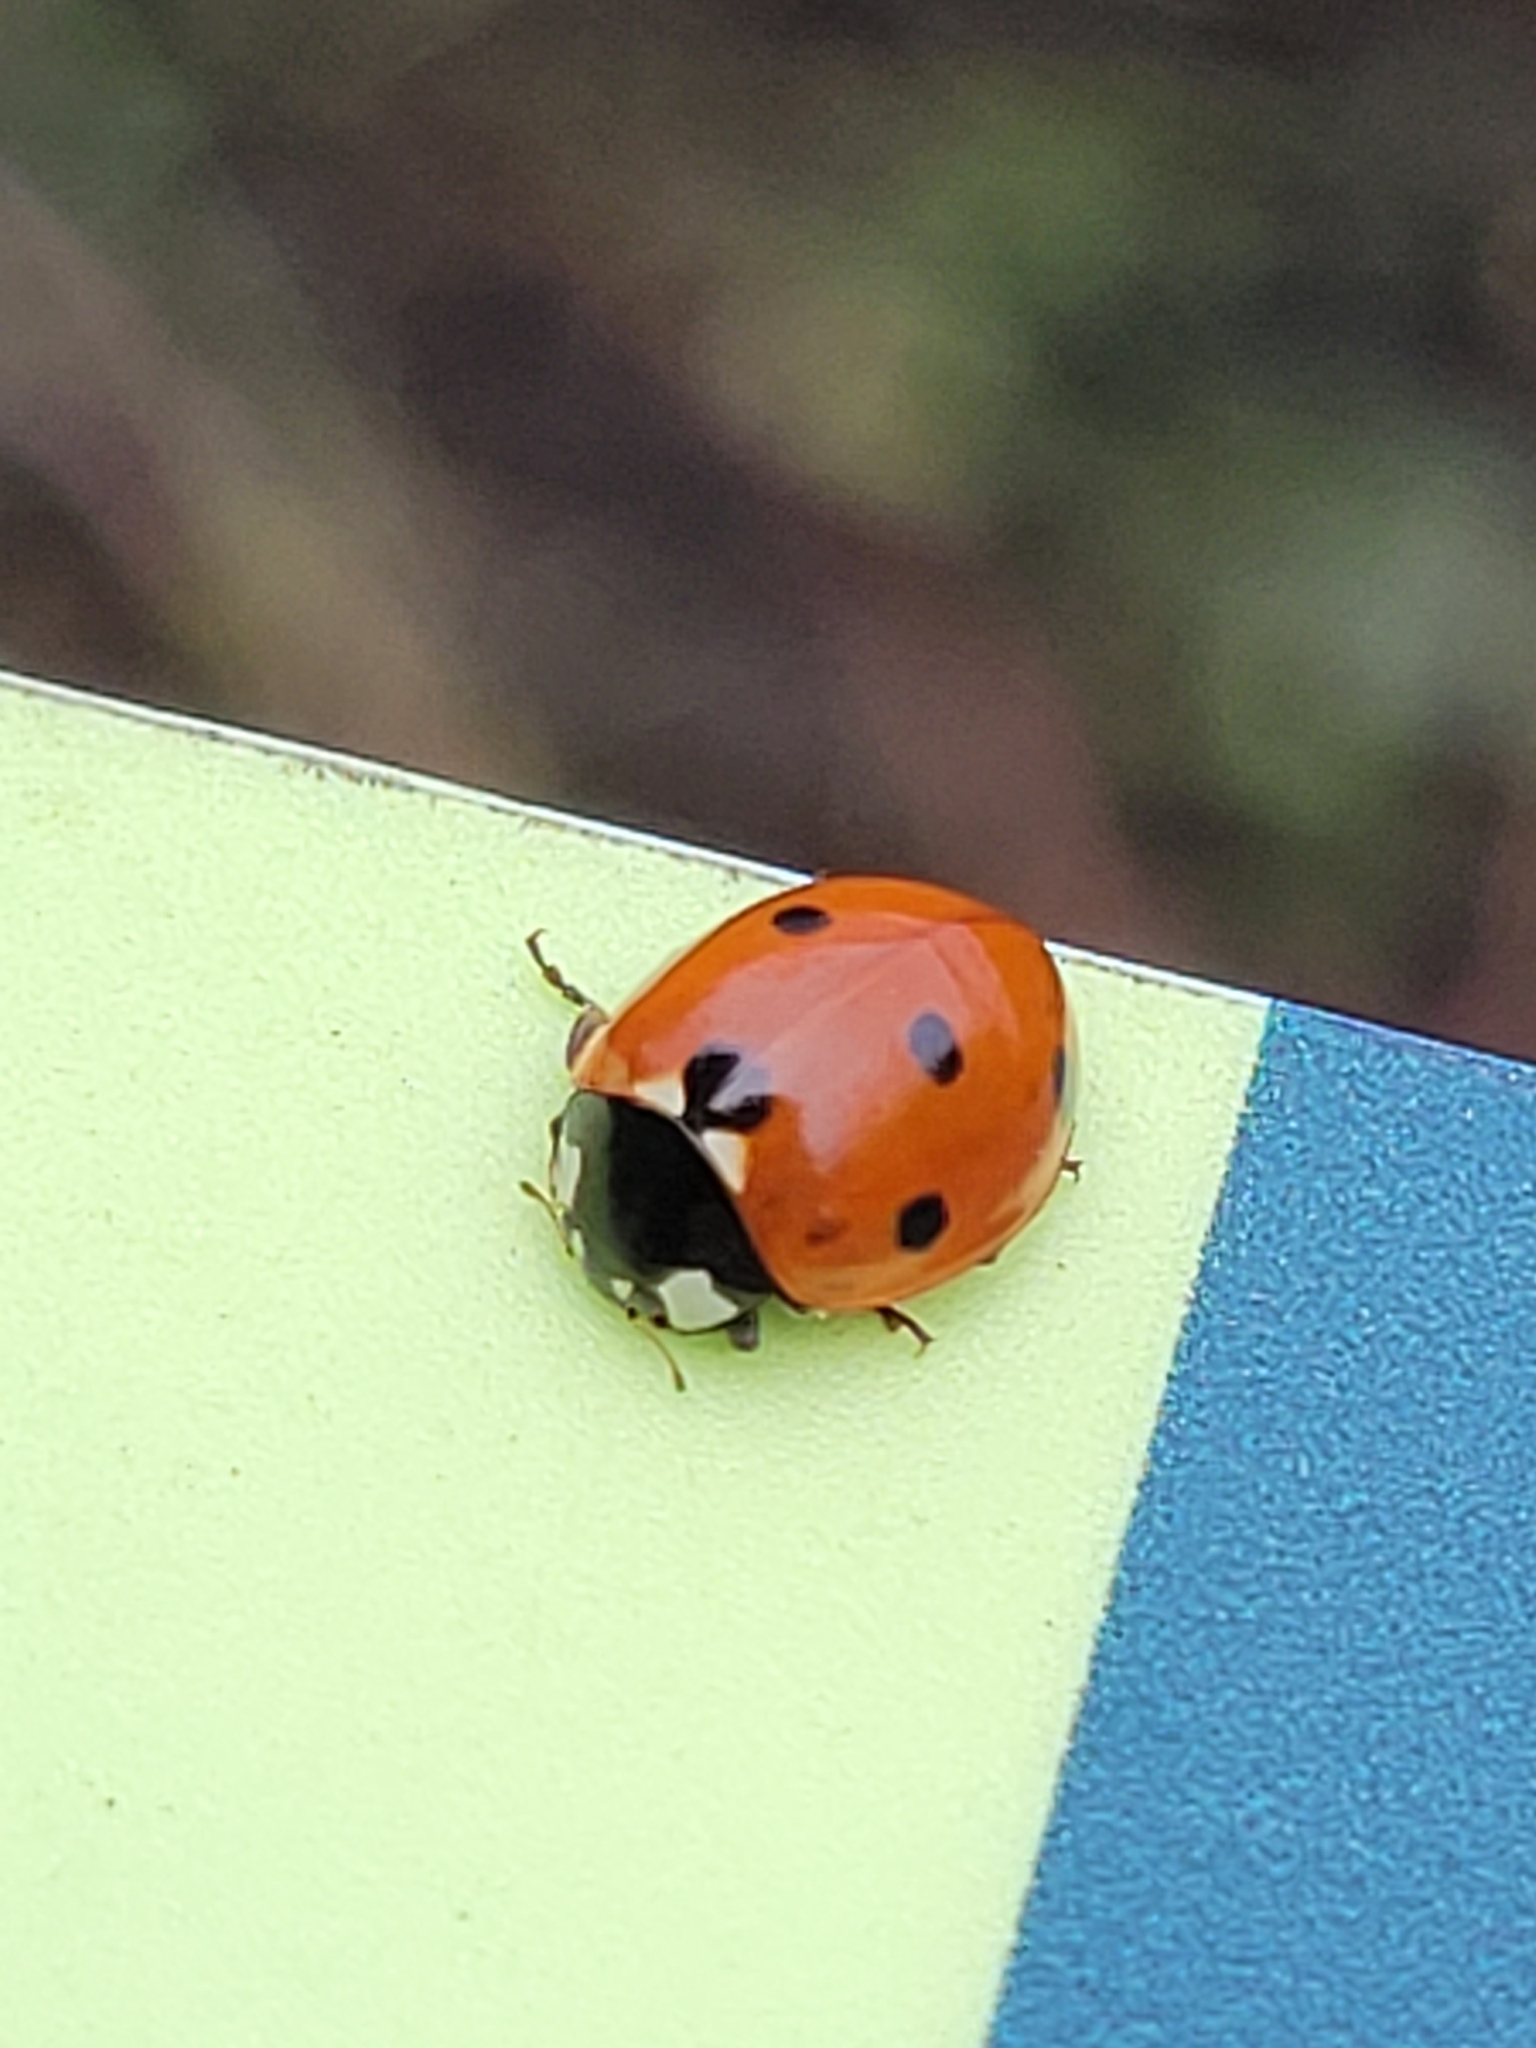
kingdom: Animalia
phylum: Arthropoda
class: Insecta
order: Coleoptera
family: Coccinellidae
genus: Coccinella
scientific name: Coccinella septempunctata
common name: Sevenspotted lady beetle
